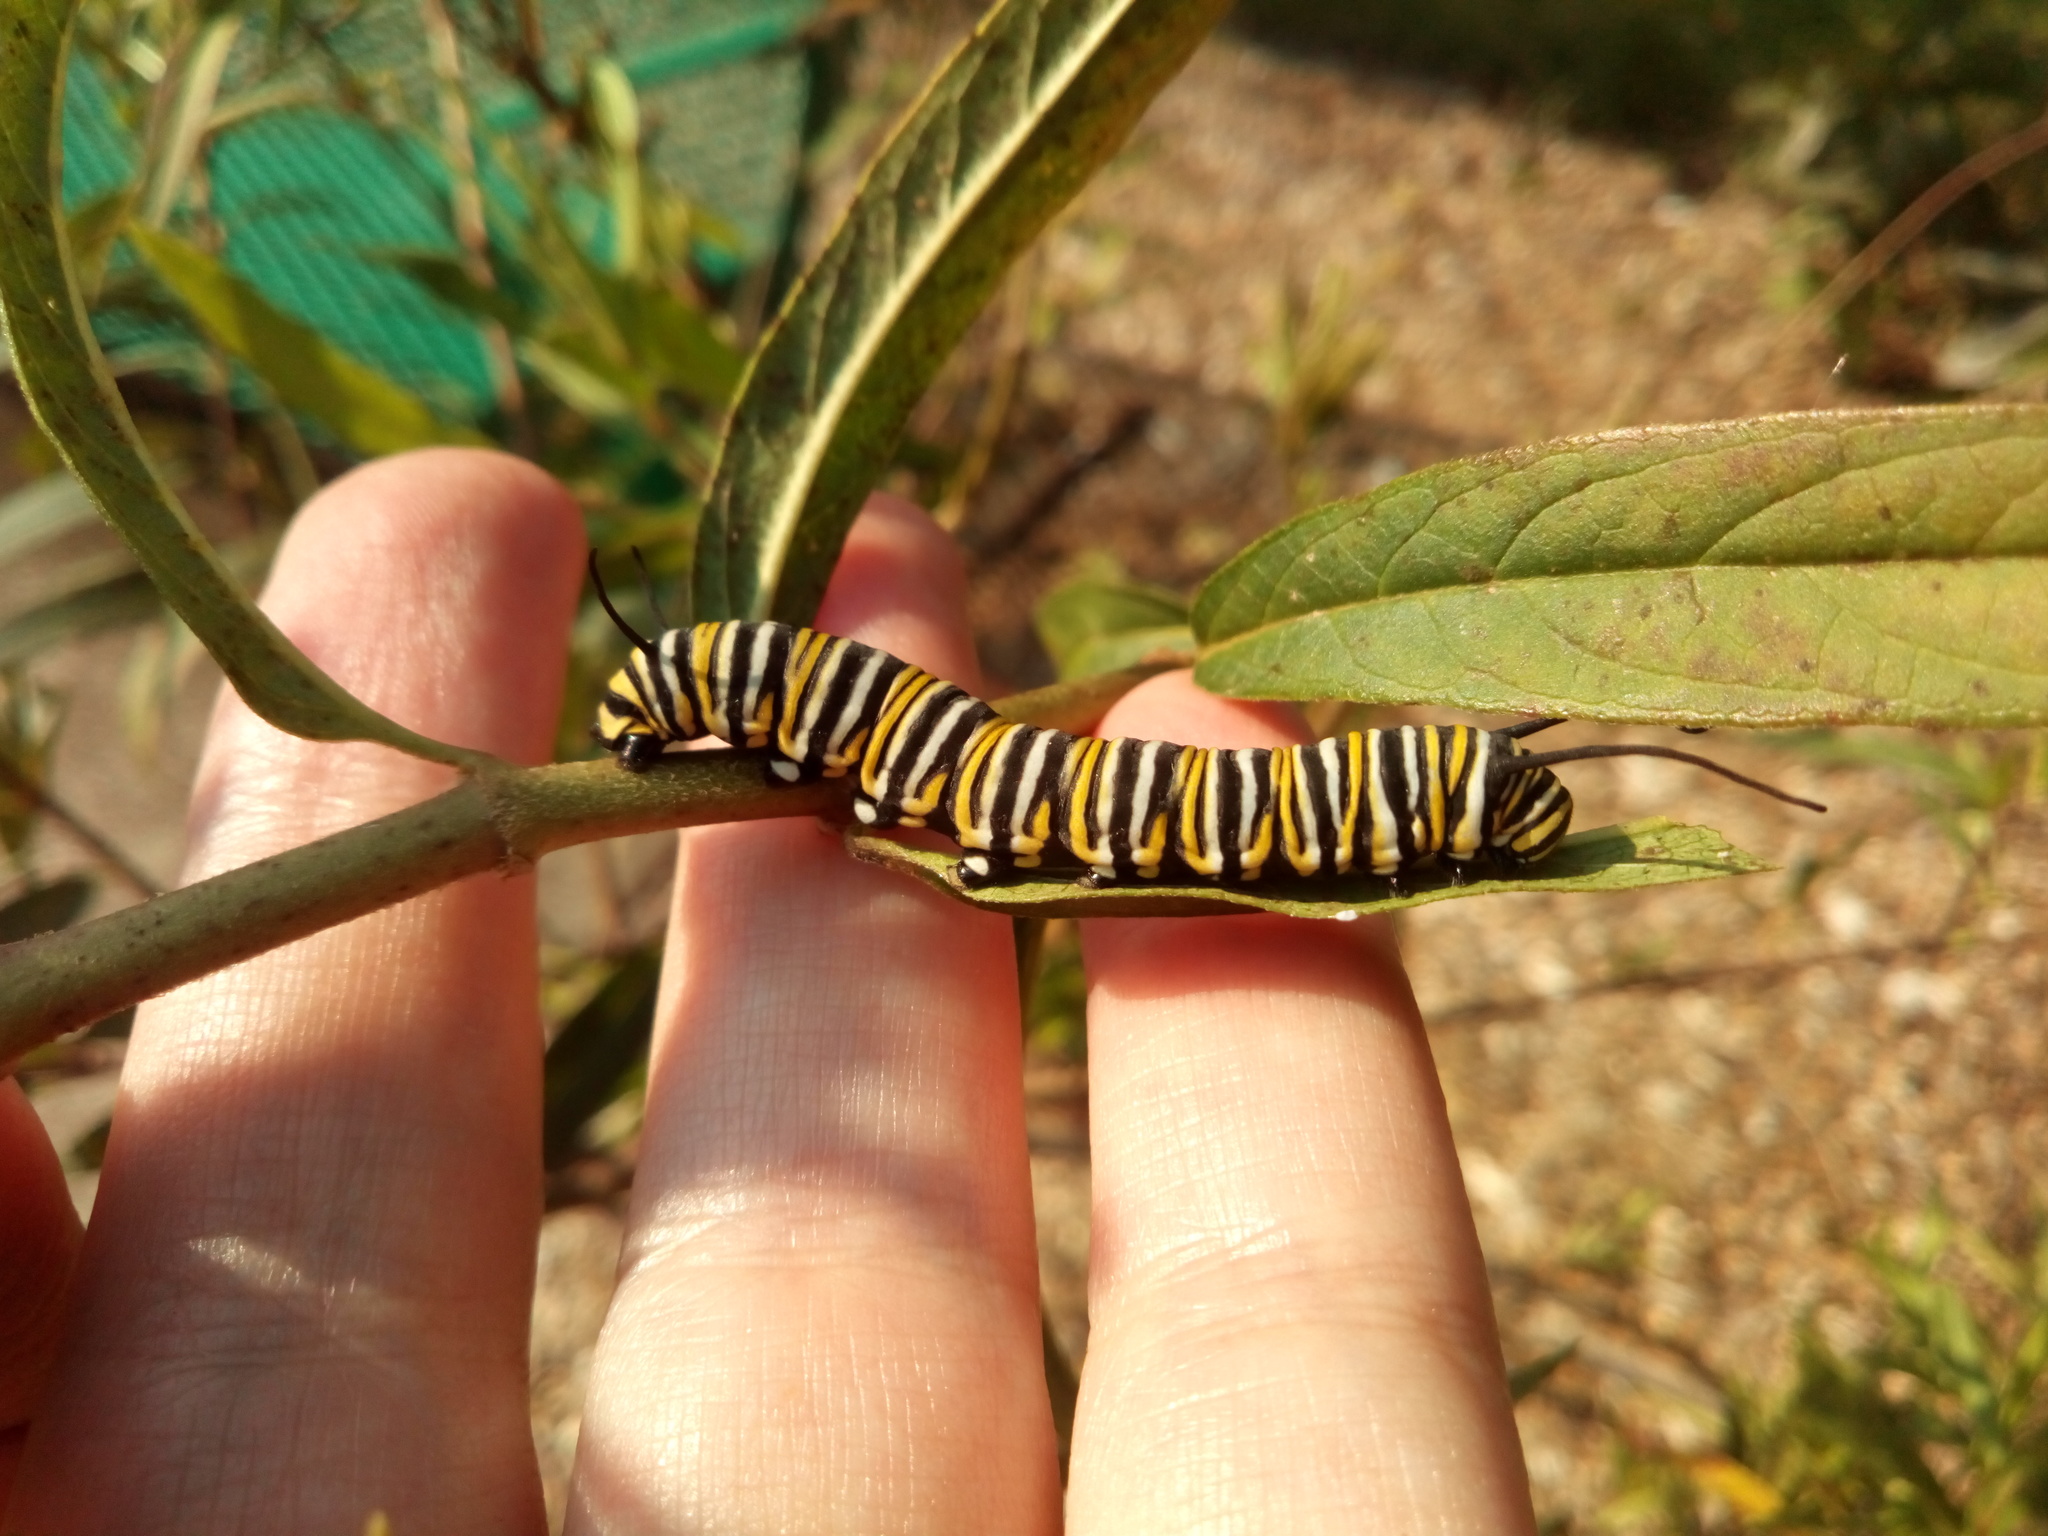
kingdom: Animalia
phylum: Arthropoda
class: Insecta
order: Lepidoptera
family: Nymphalidae
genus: Danaus
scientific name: Danaus plexippus
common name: Monarch
